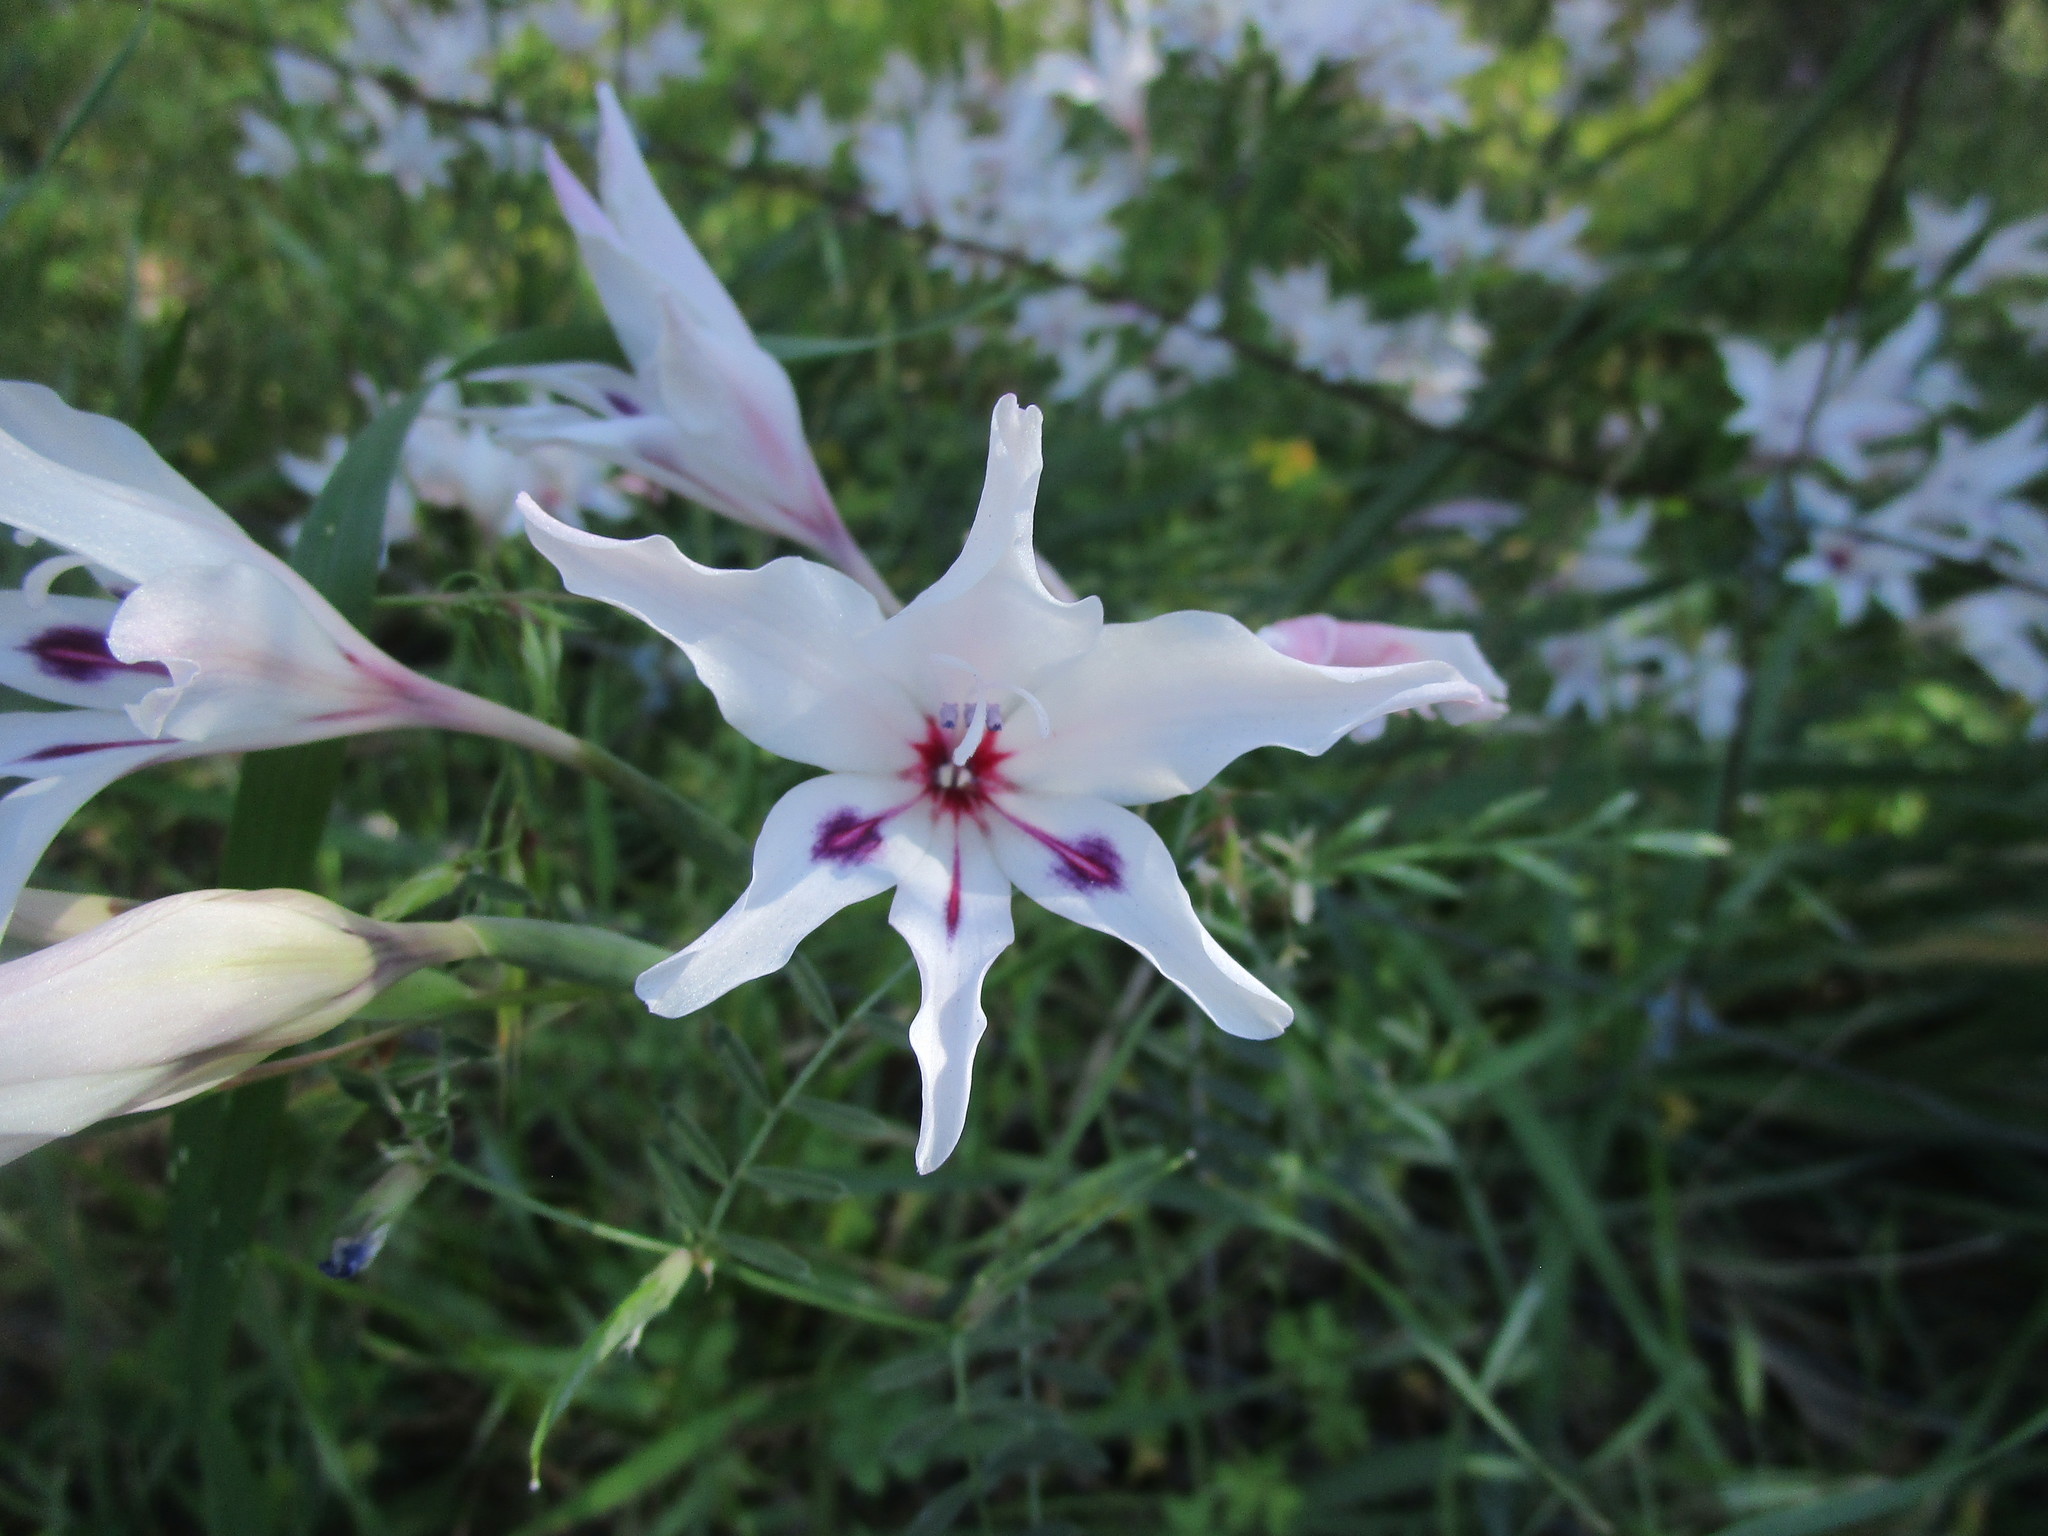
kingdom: Plantae
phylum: Tracheophyta
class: Liliopsida
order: Asparagales
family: Iridaceae
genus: Gladiolus
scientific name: Gladiolus angustus
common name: Painted-lady
